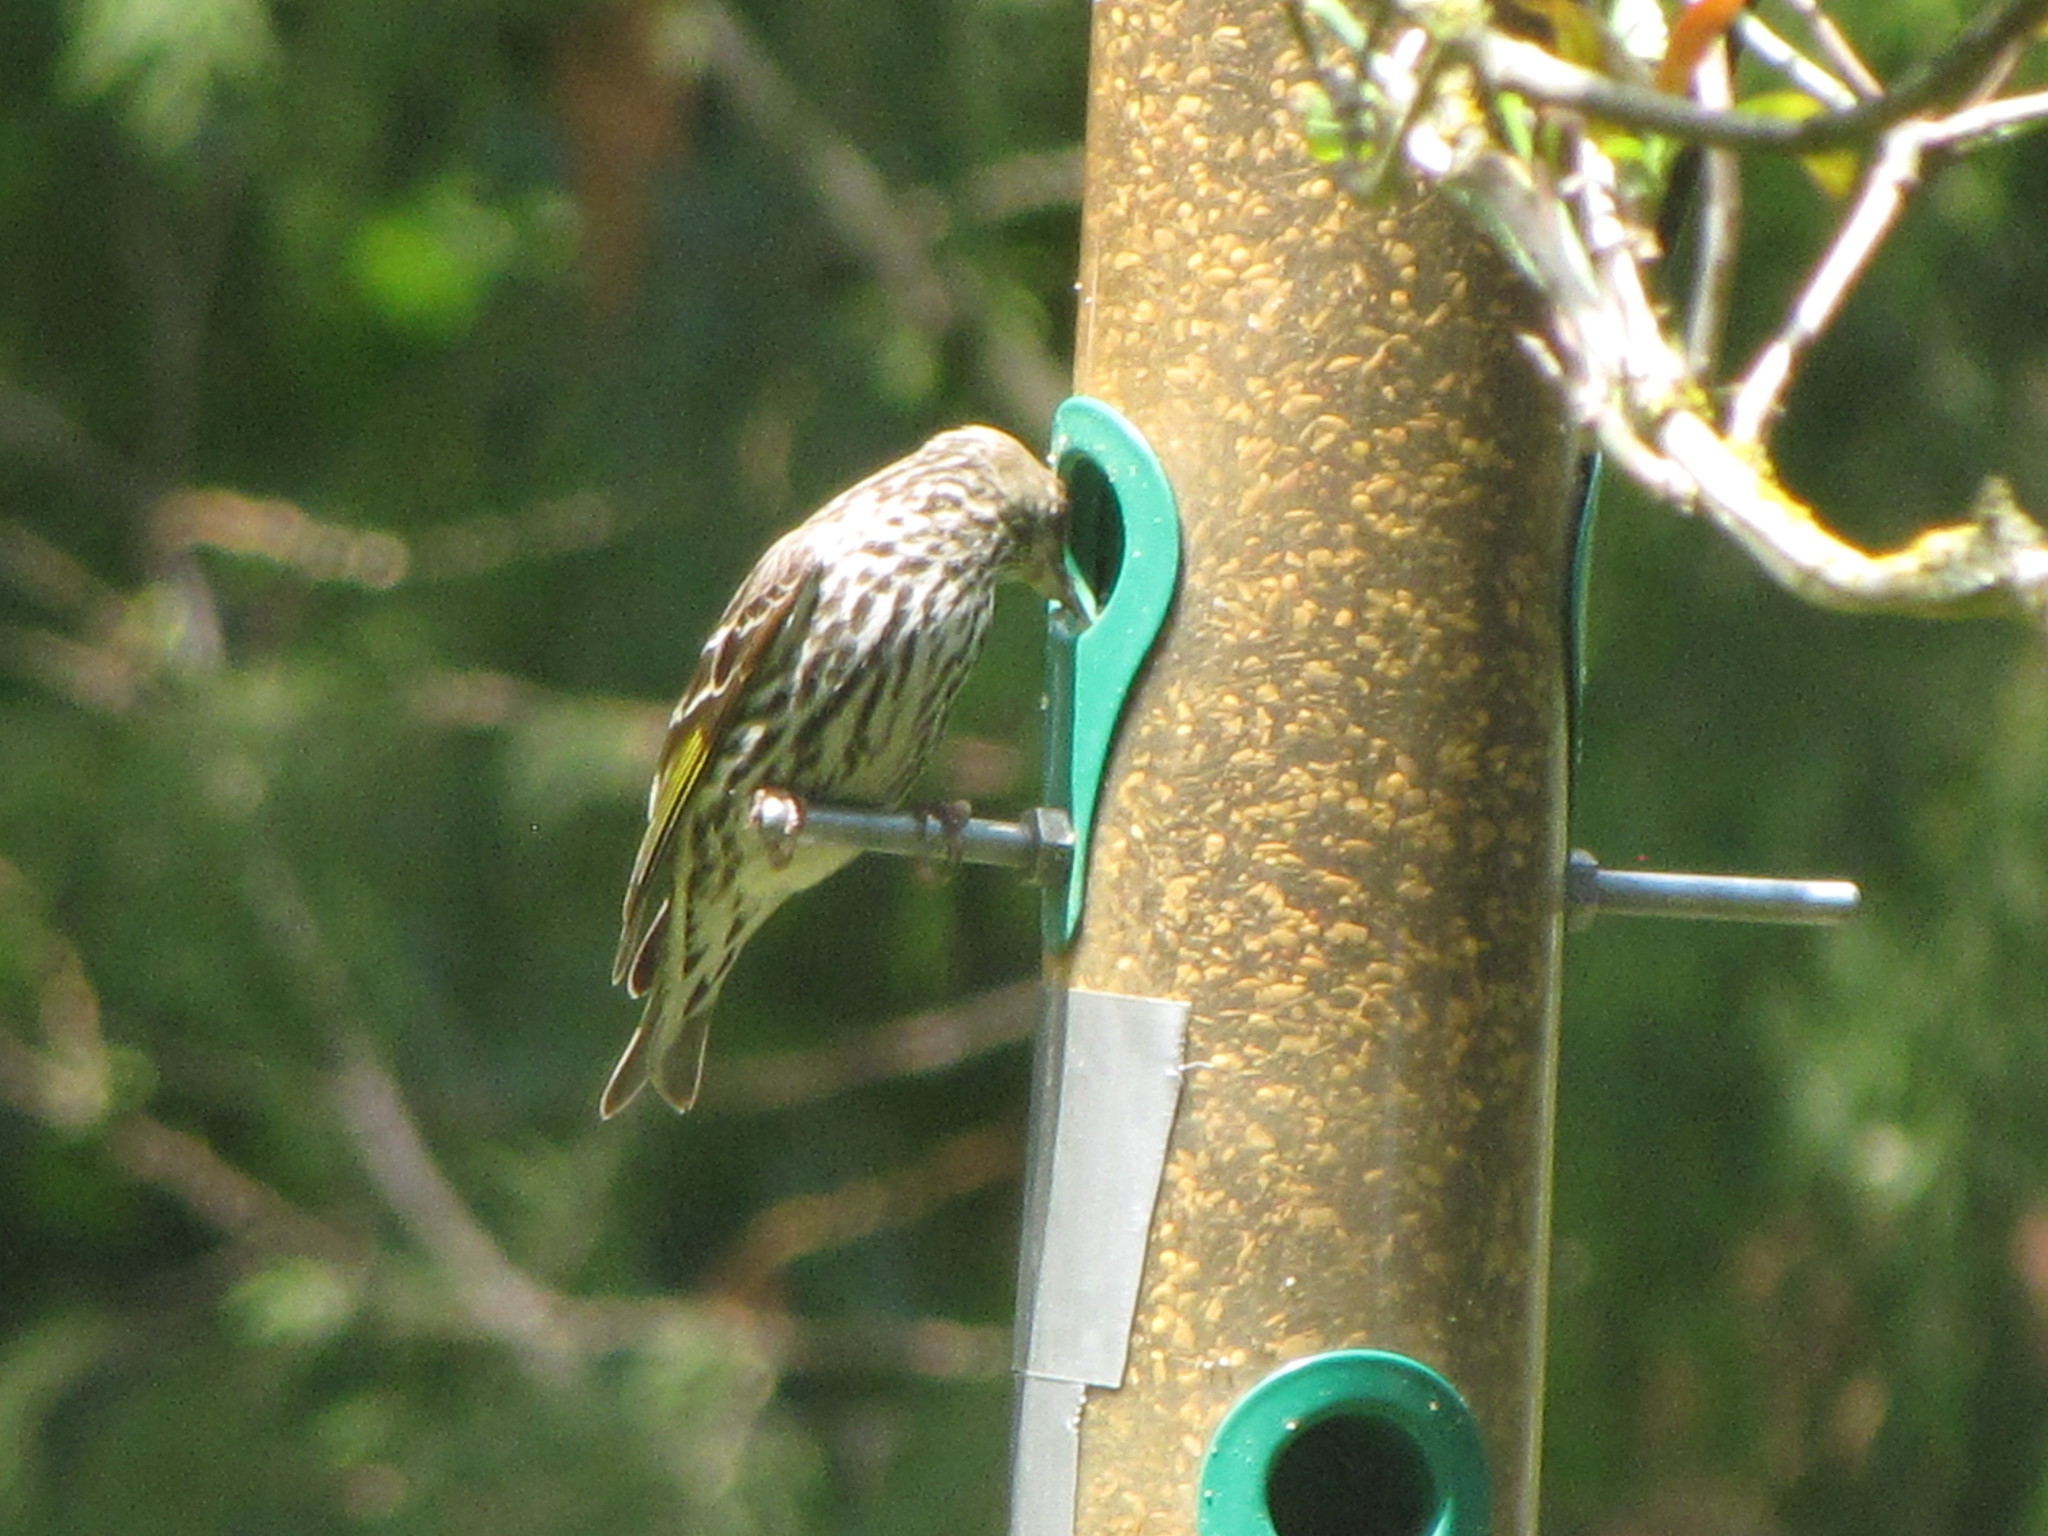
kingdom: Animalia
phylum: Chordata
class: Aves
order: Passeriformes
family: Fringillidae
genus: Spinus
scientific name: Spinus pinus
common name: Pine siskin
